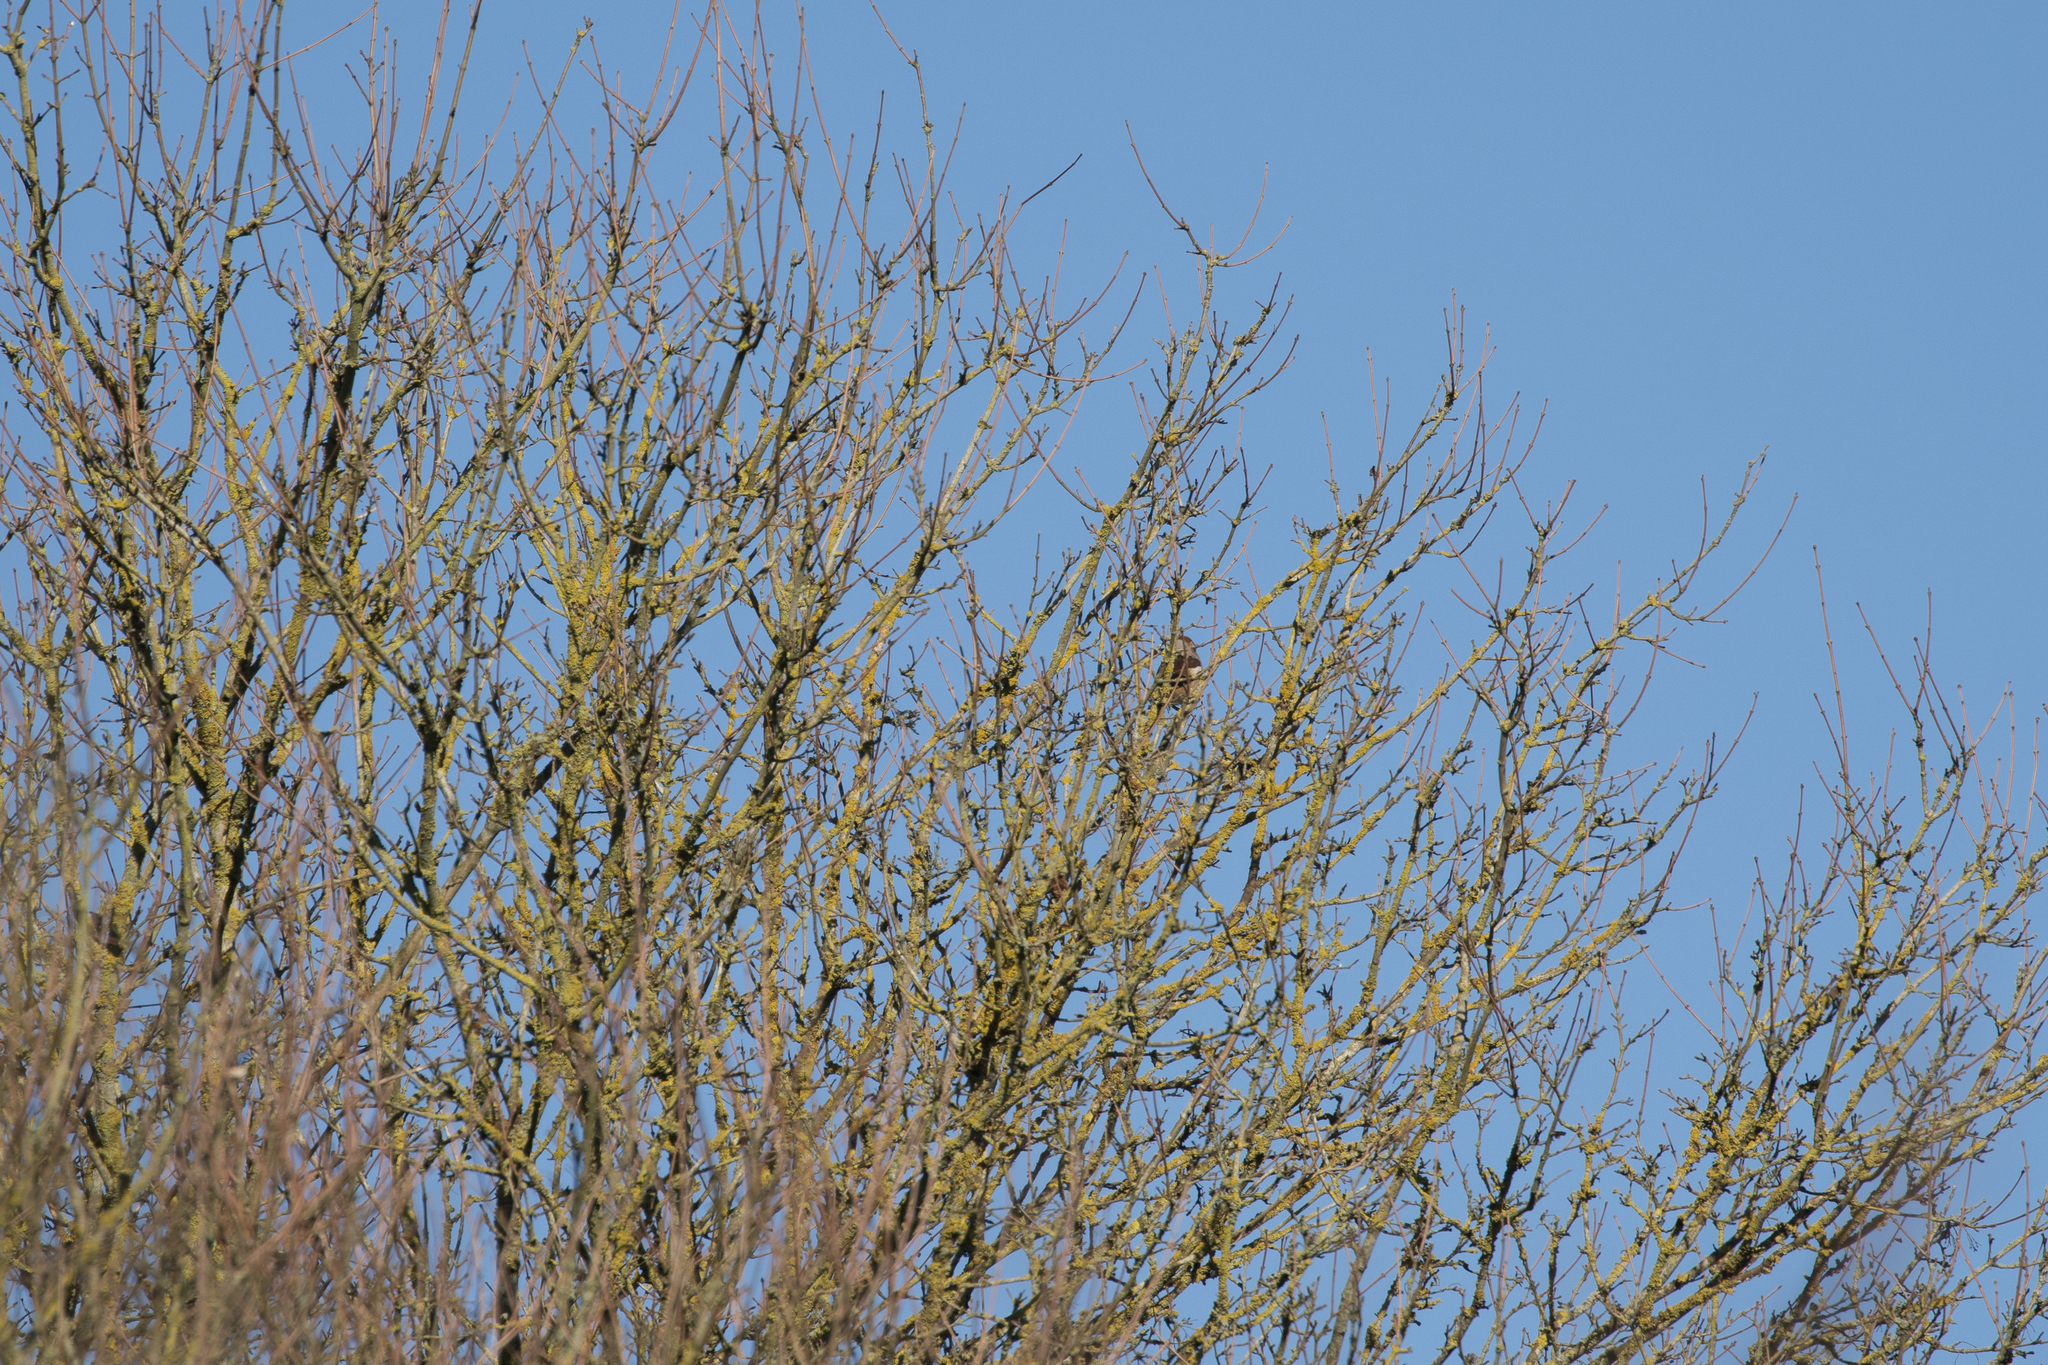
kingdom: Animalia
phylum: Chordata
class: Aves
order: Passeriformes
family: Fringillidae
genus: Coccothraustes
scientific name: Coccothraustes coccothraustes
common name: Hawfinch
